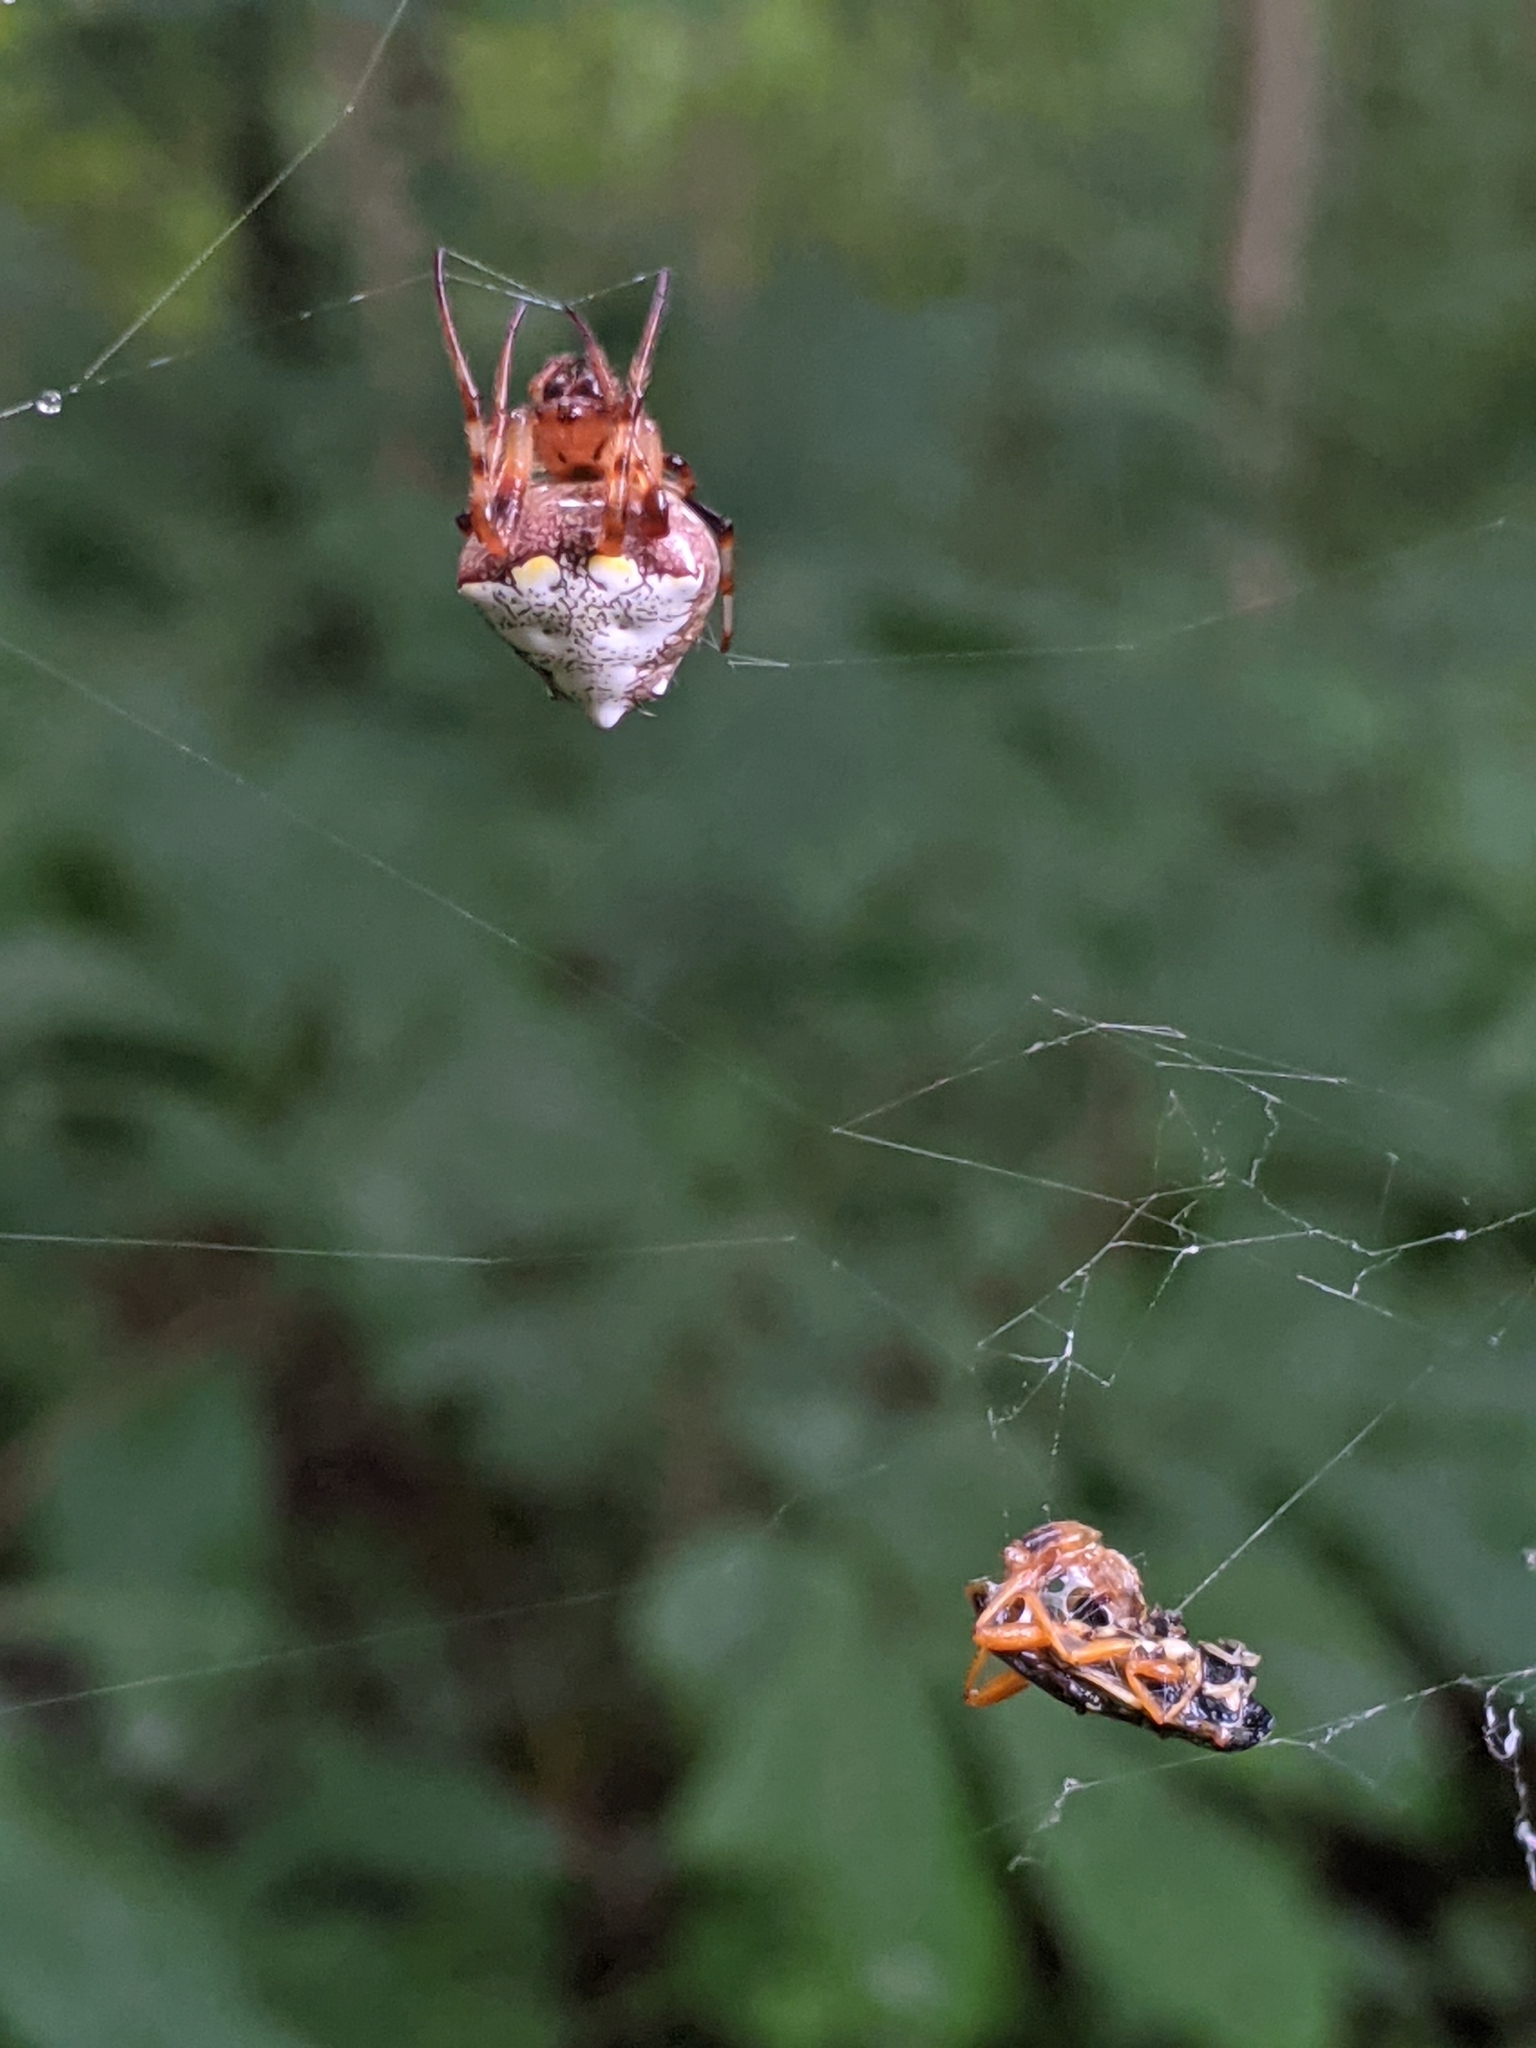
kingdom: Animalia
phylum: Arthropoda
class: Arachnida
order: Araneae
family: Araneidae
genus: Verrucosa
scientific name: Verrucosa arenata
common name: Orb weavers
